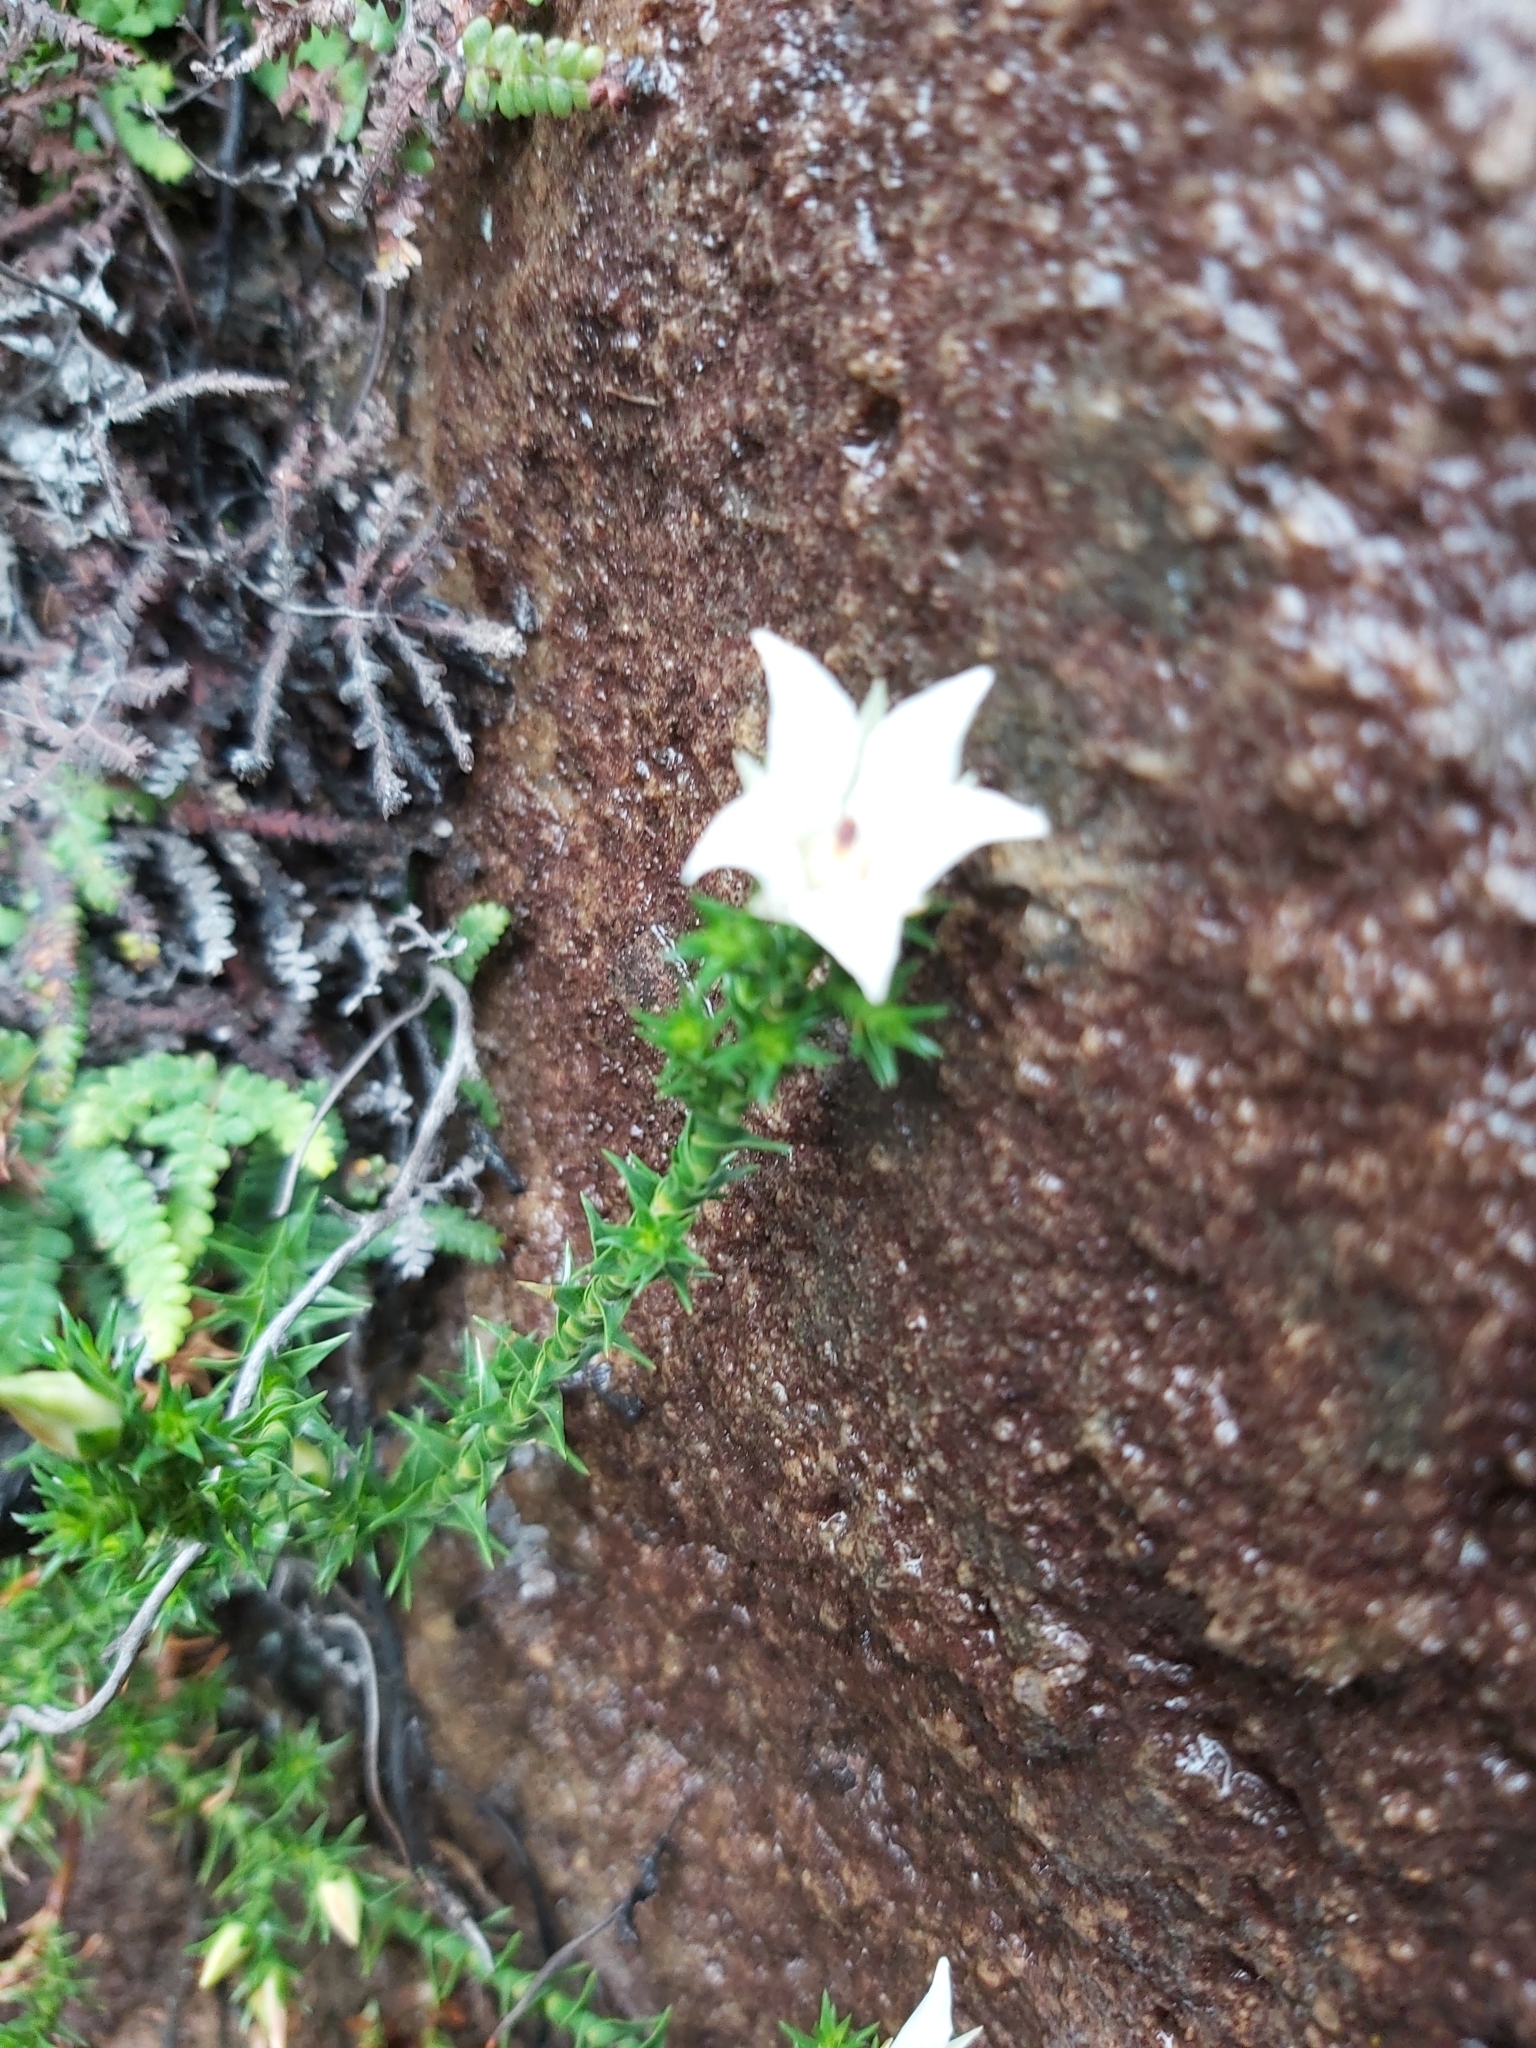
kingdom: Plantae
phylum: Tracheophyta
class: Magnoliopsida
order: Ericales
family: Ericaceae
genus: Sprengelia
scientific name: Sprengelia monticola
